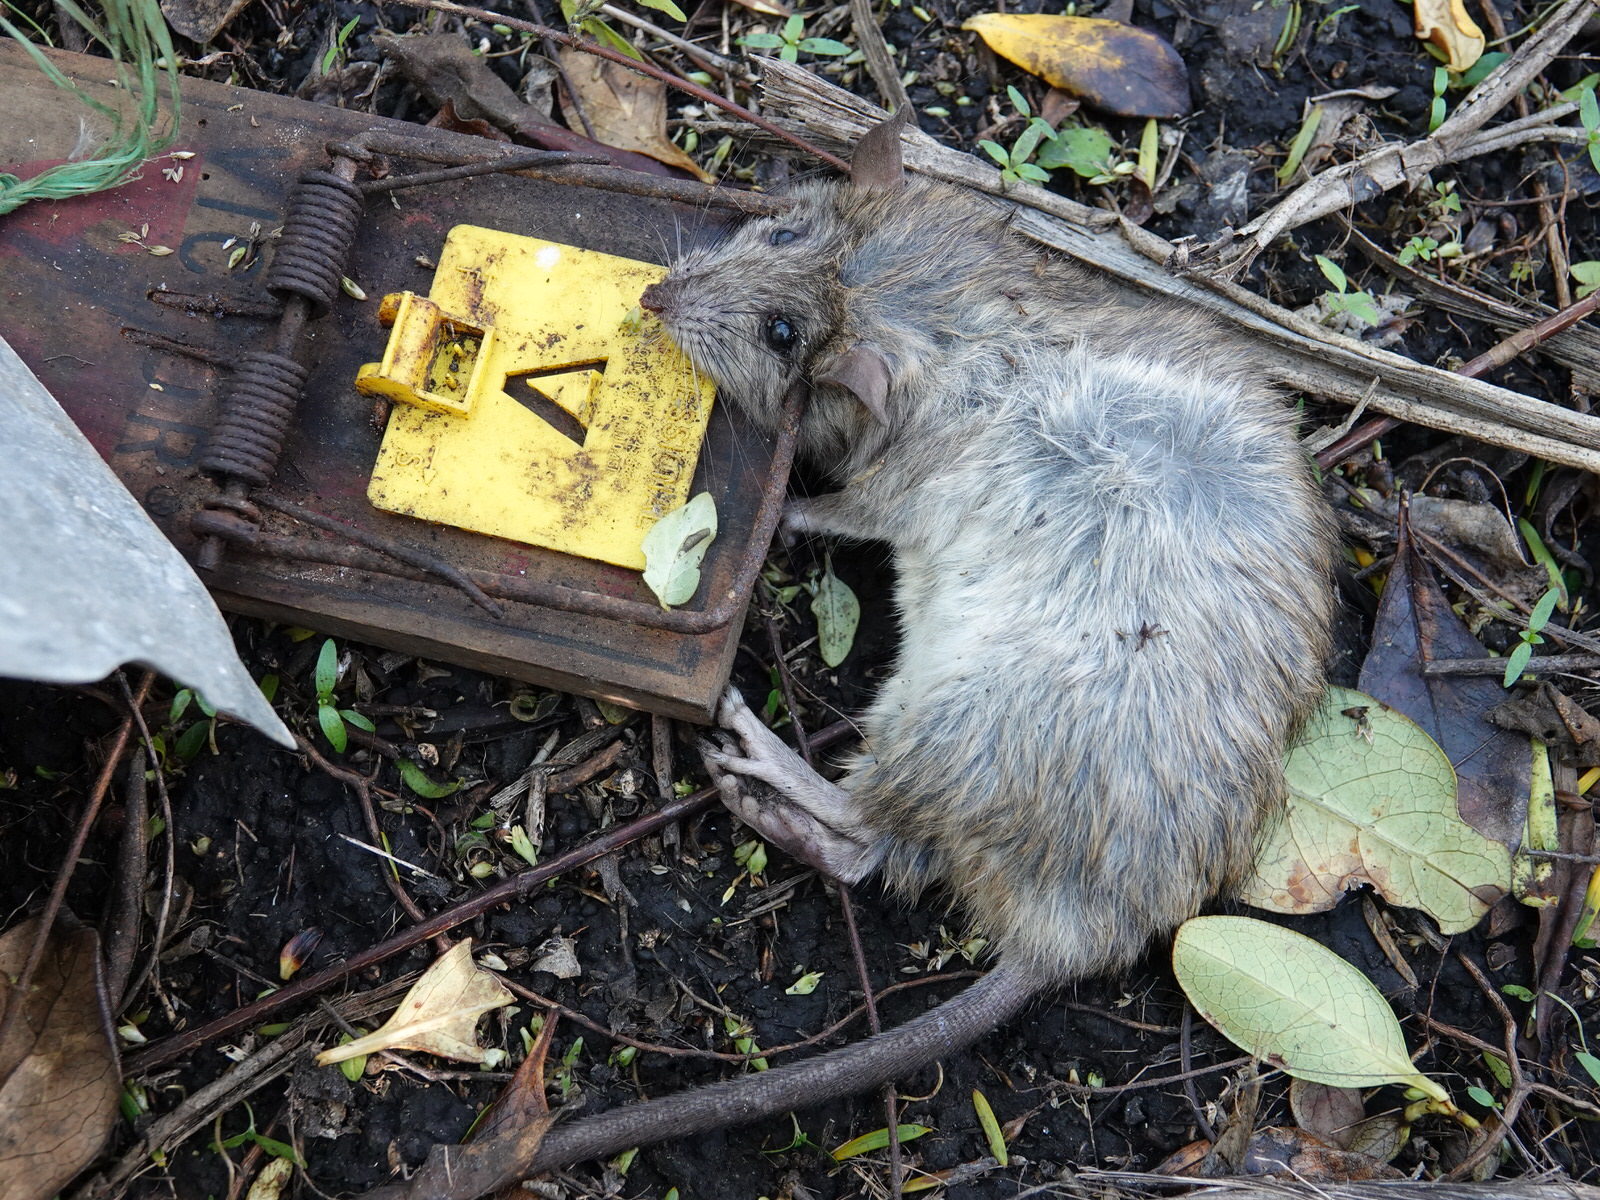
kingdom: Animalia
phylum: Chordata
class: Mammalia
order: Rodentia
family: Muridae
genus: Rattus
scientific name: Rattus rattus
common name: Black rat
